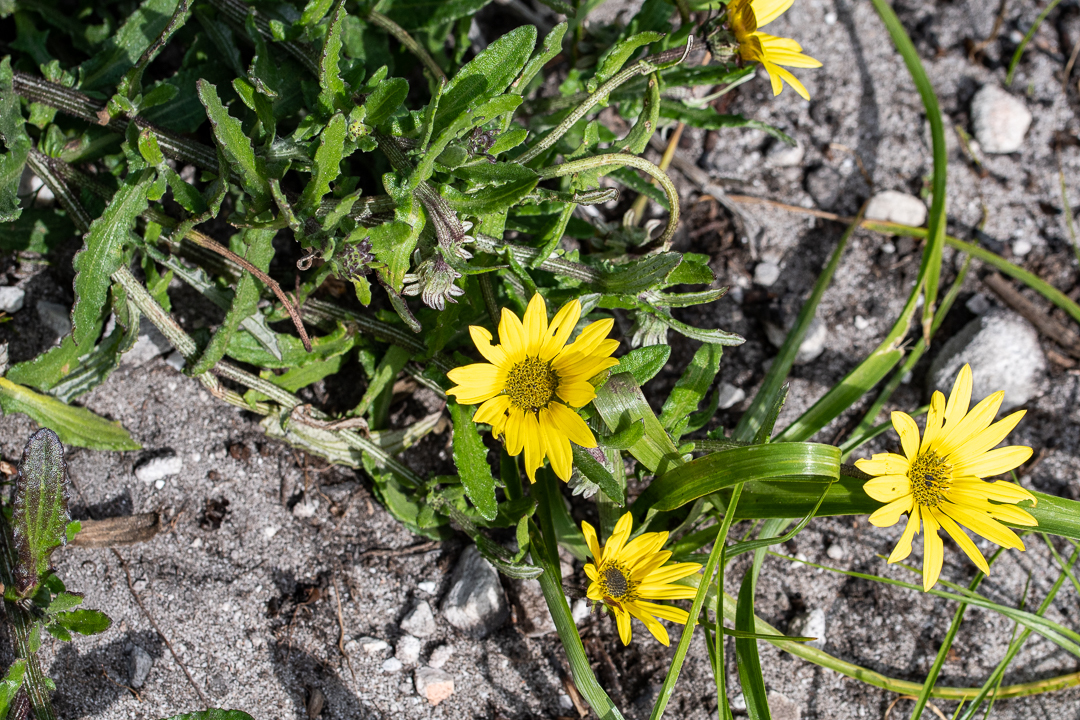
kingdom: Plantae
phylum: Tracheophyta
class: Magnoliopsida
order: Asterales
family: Asteraceae
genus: Arctotis
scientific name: Arctotis scabra
